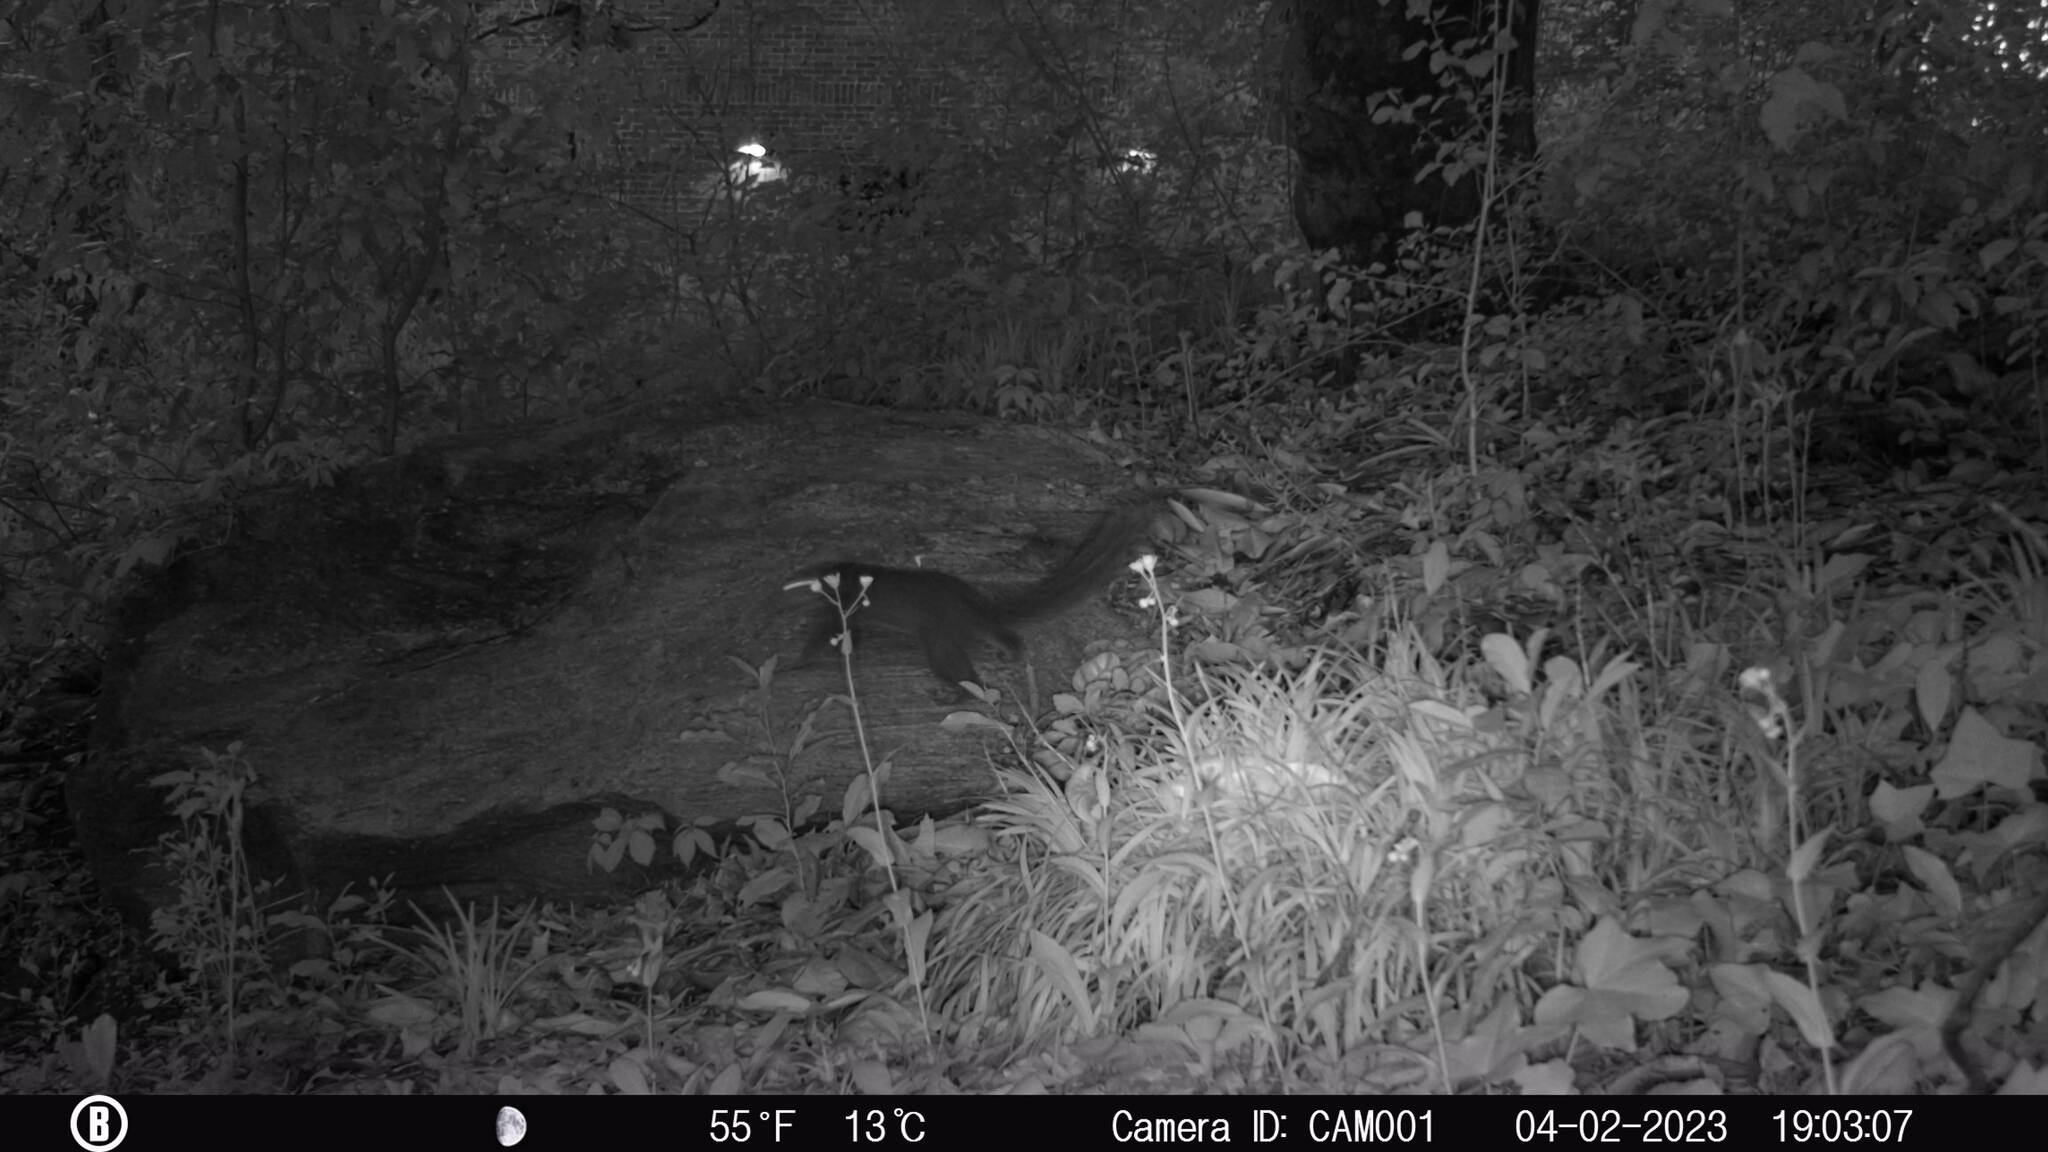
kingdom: Animalia
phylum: Chordata
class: Mammalia
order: Rodentia
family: Sciuridae
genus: Sciurus
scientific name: Sciurus carolinensis
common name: Eastern gray squirrel
